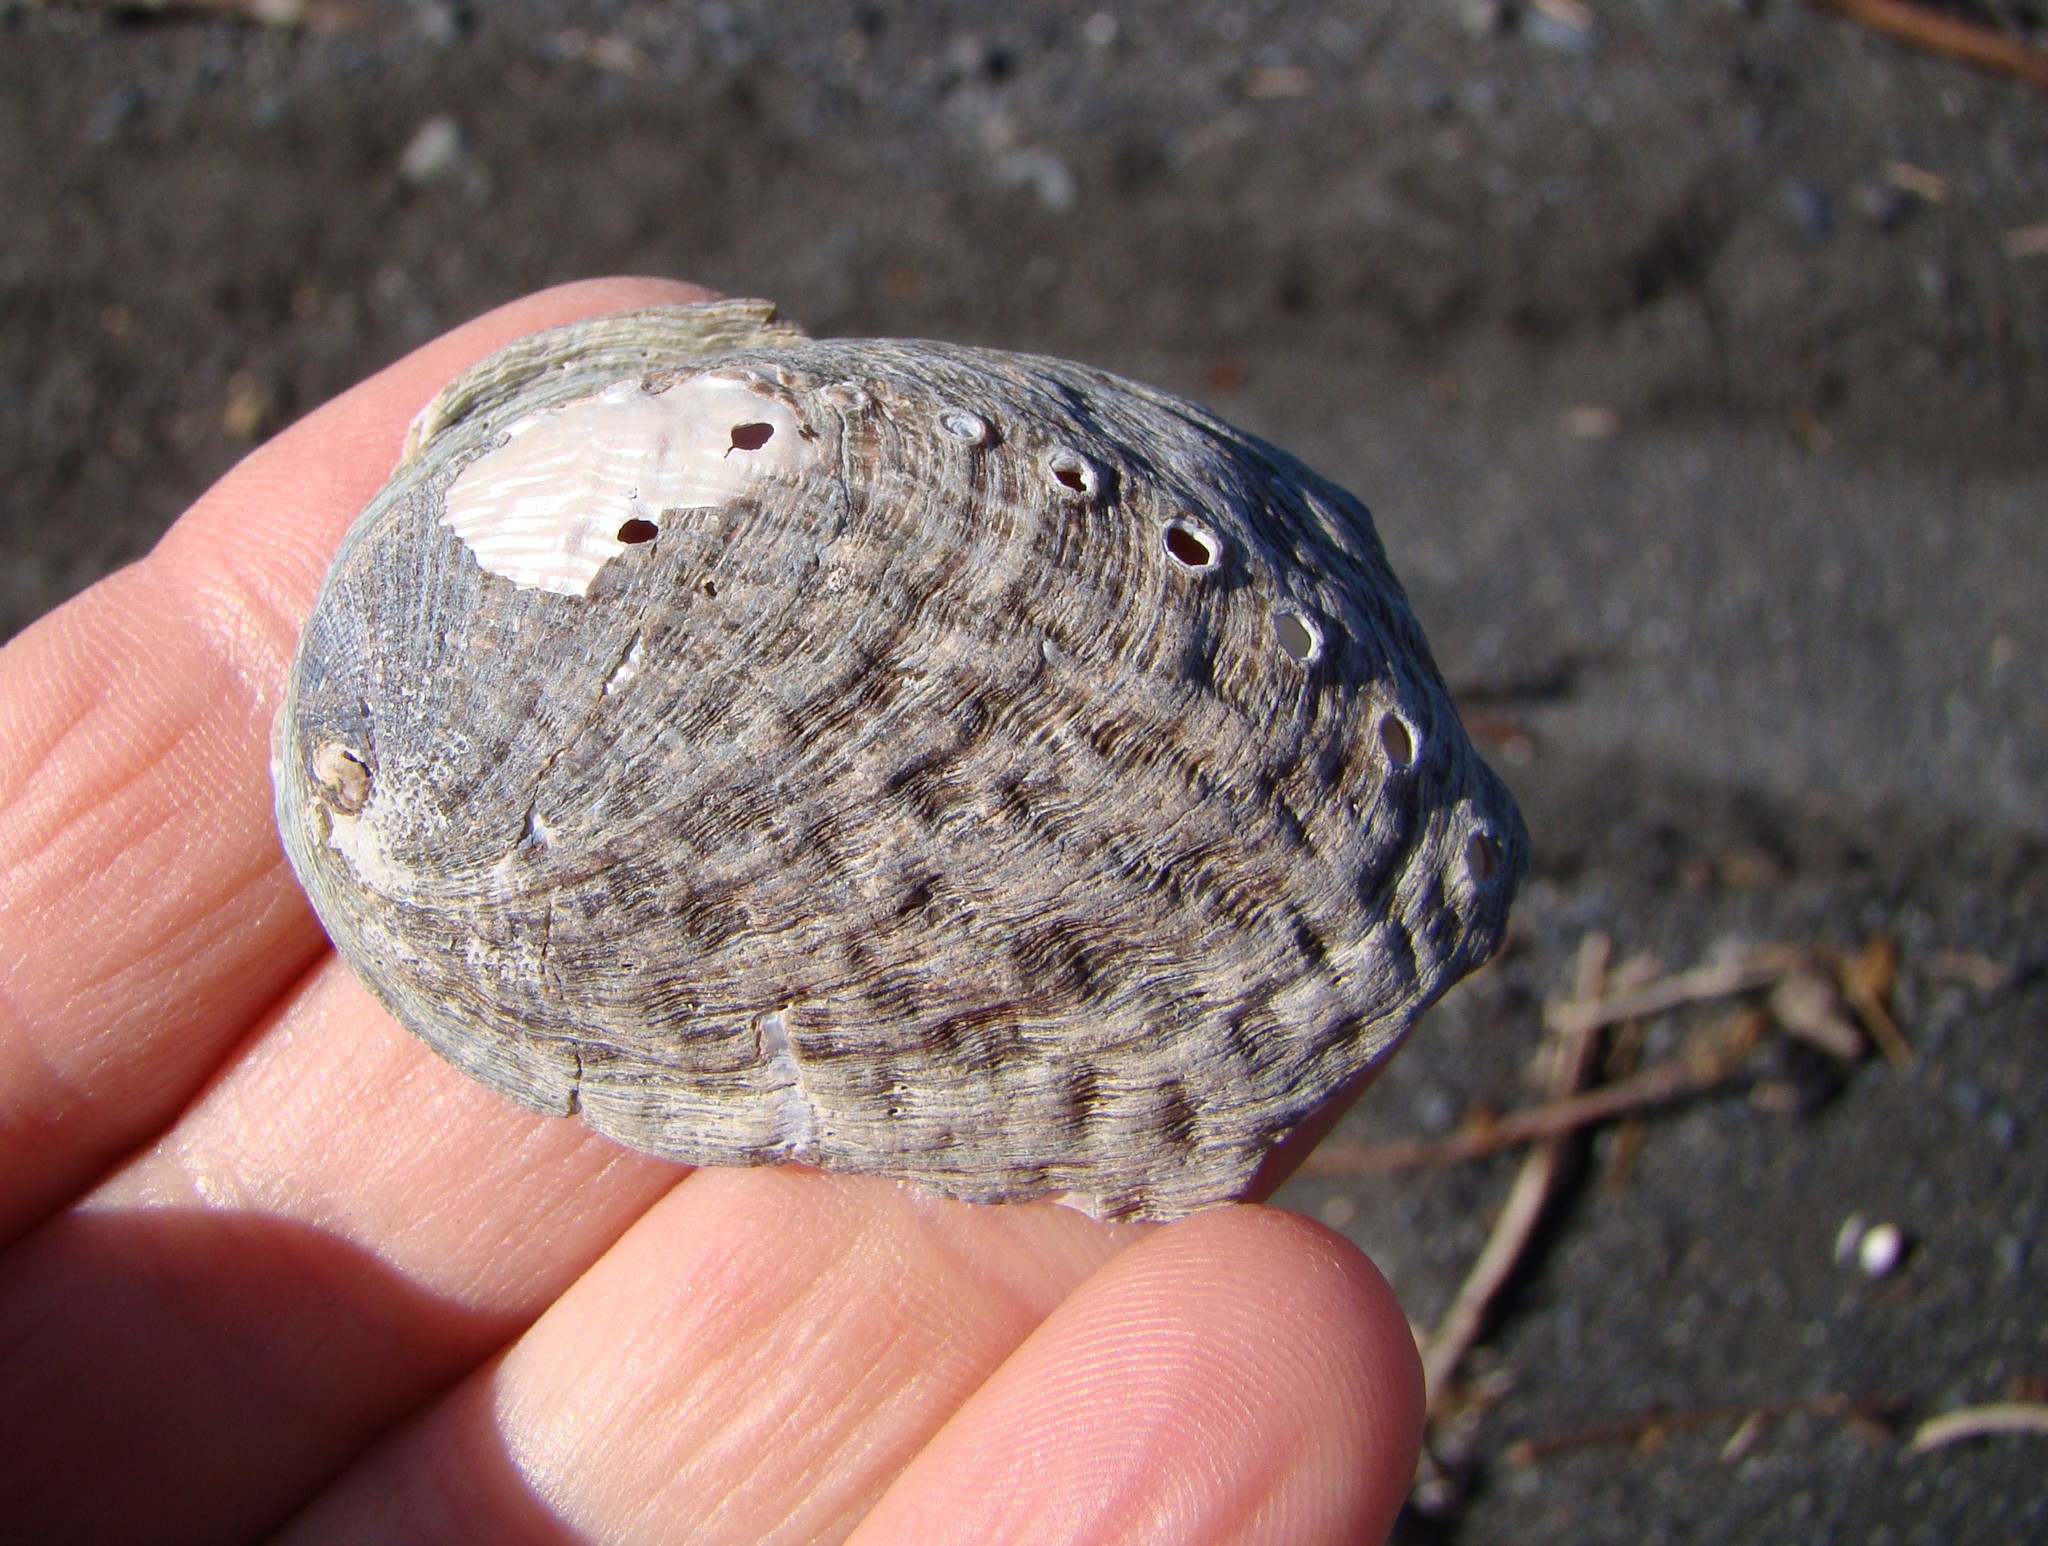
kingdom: Animalia
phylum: Mollusca
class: Gastropoda
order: Lepetellida
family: Haliotidae
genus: Haliotis
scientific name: Haliotis iris
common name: Abalone
